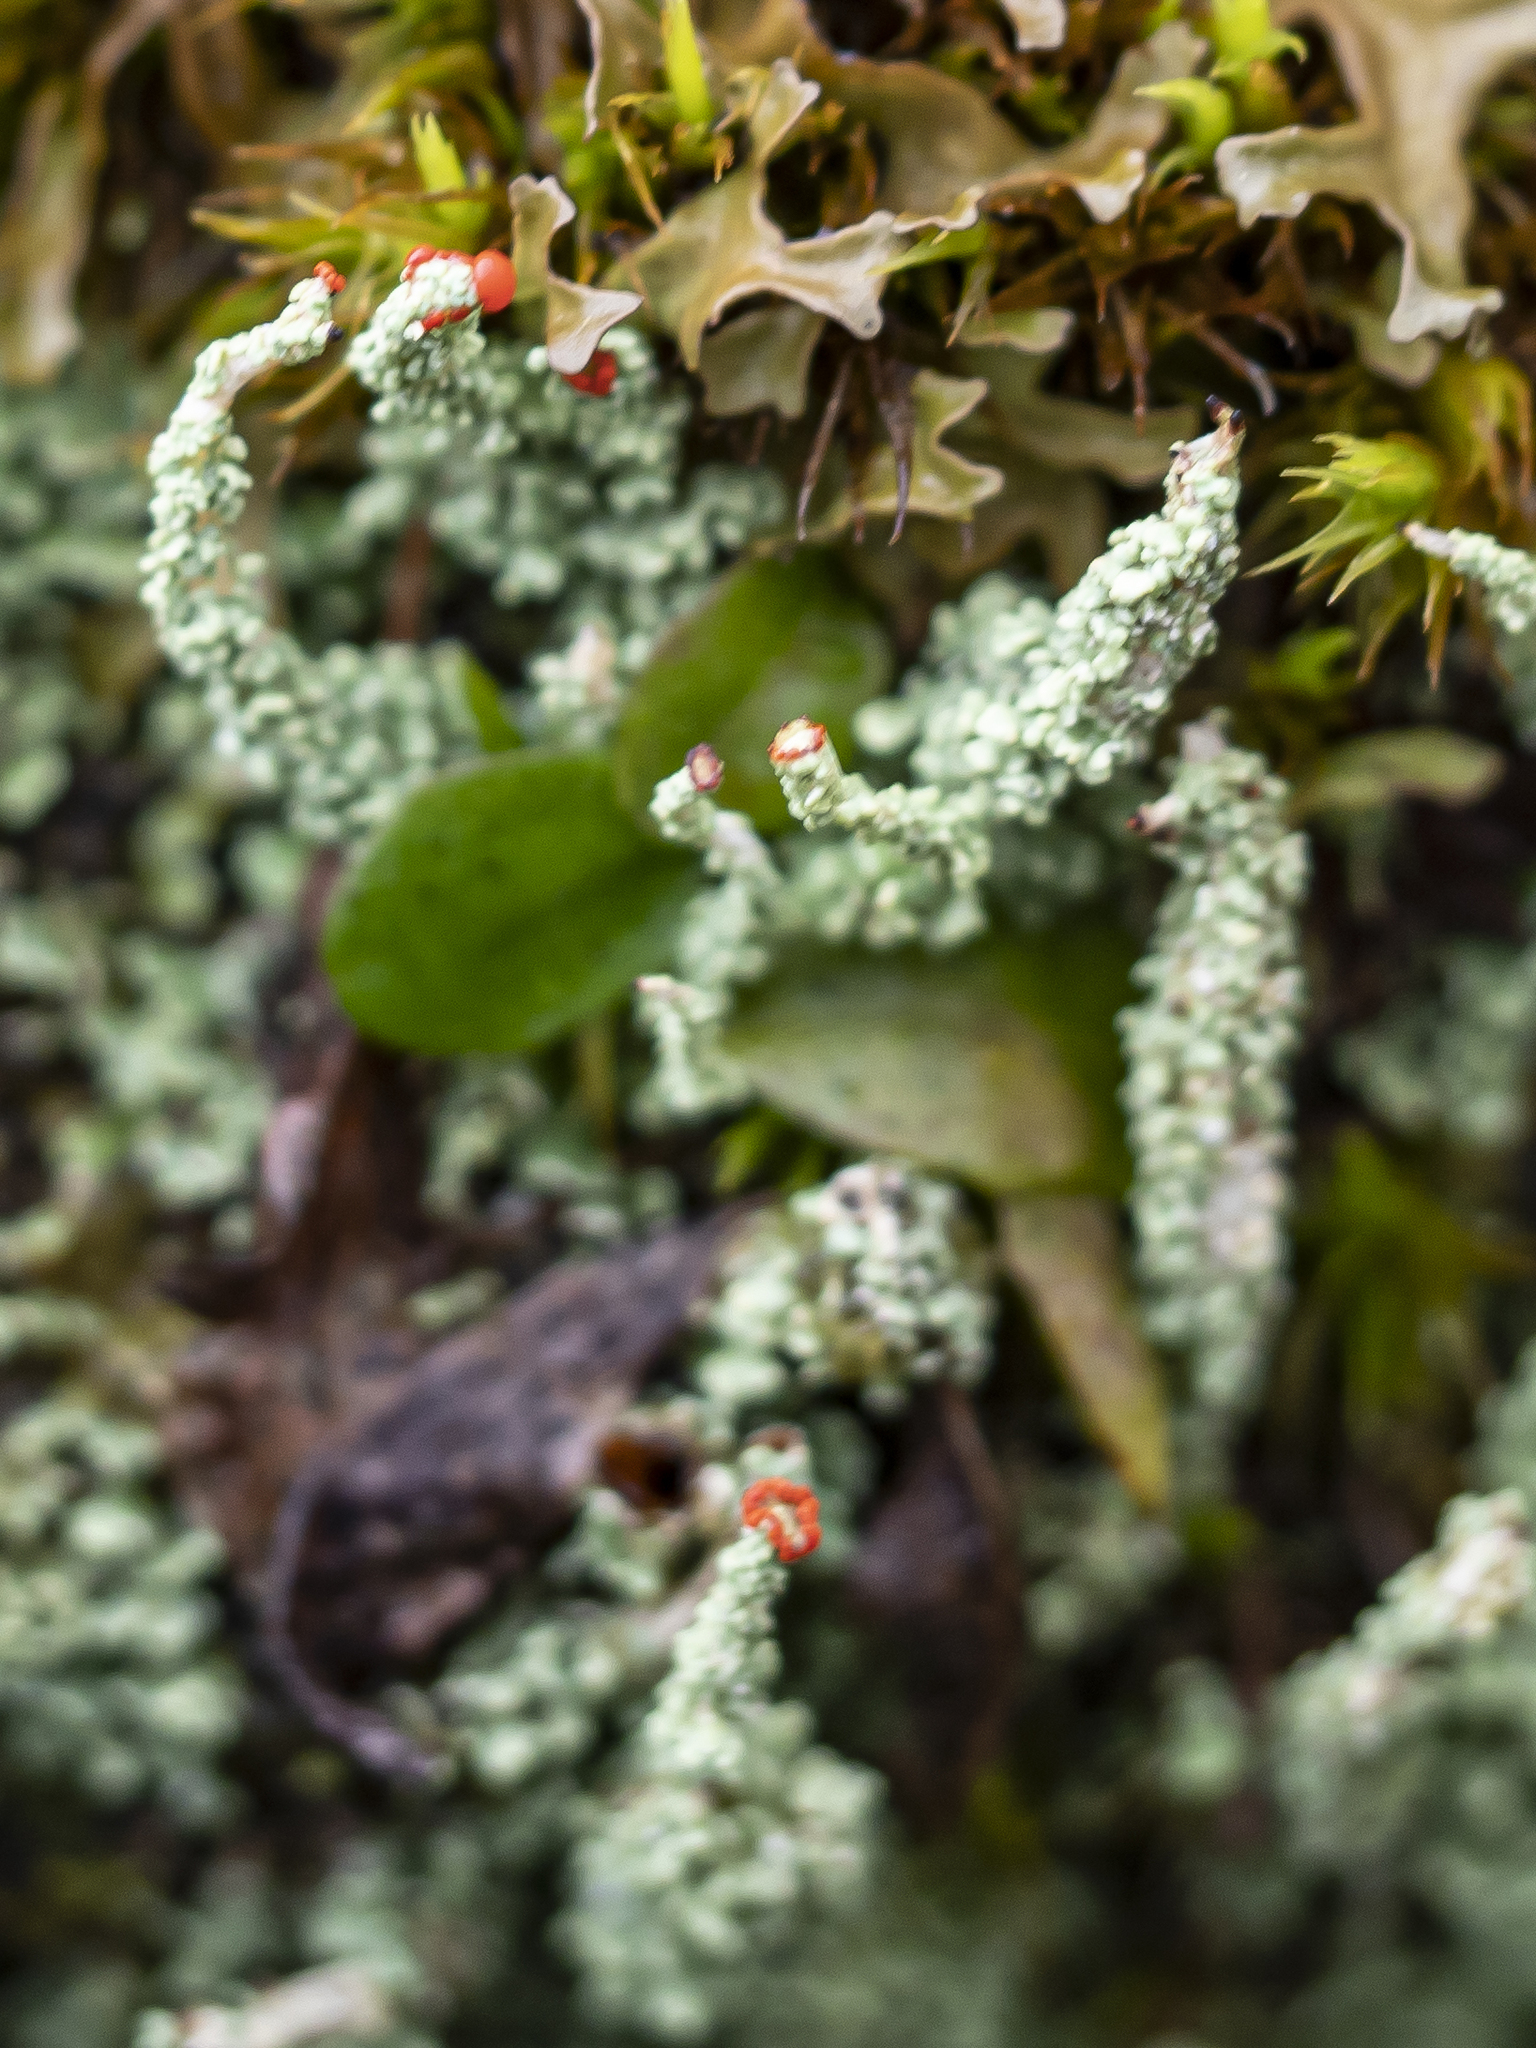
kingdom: Fungi
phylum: Ascomycota
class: Lecanoromycetes
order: Lecanorales
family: Cladoniaceae
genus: Cladonia
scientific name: Cladonia bellidiflora
